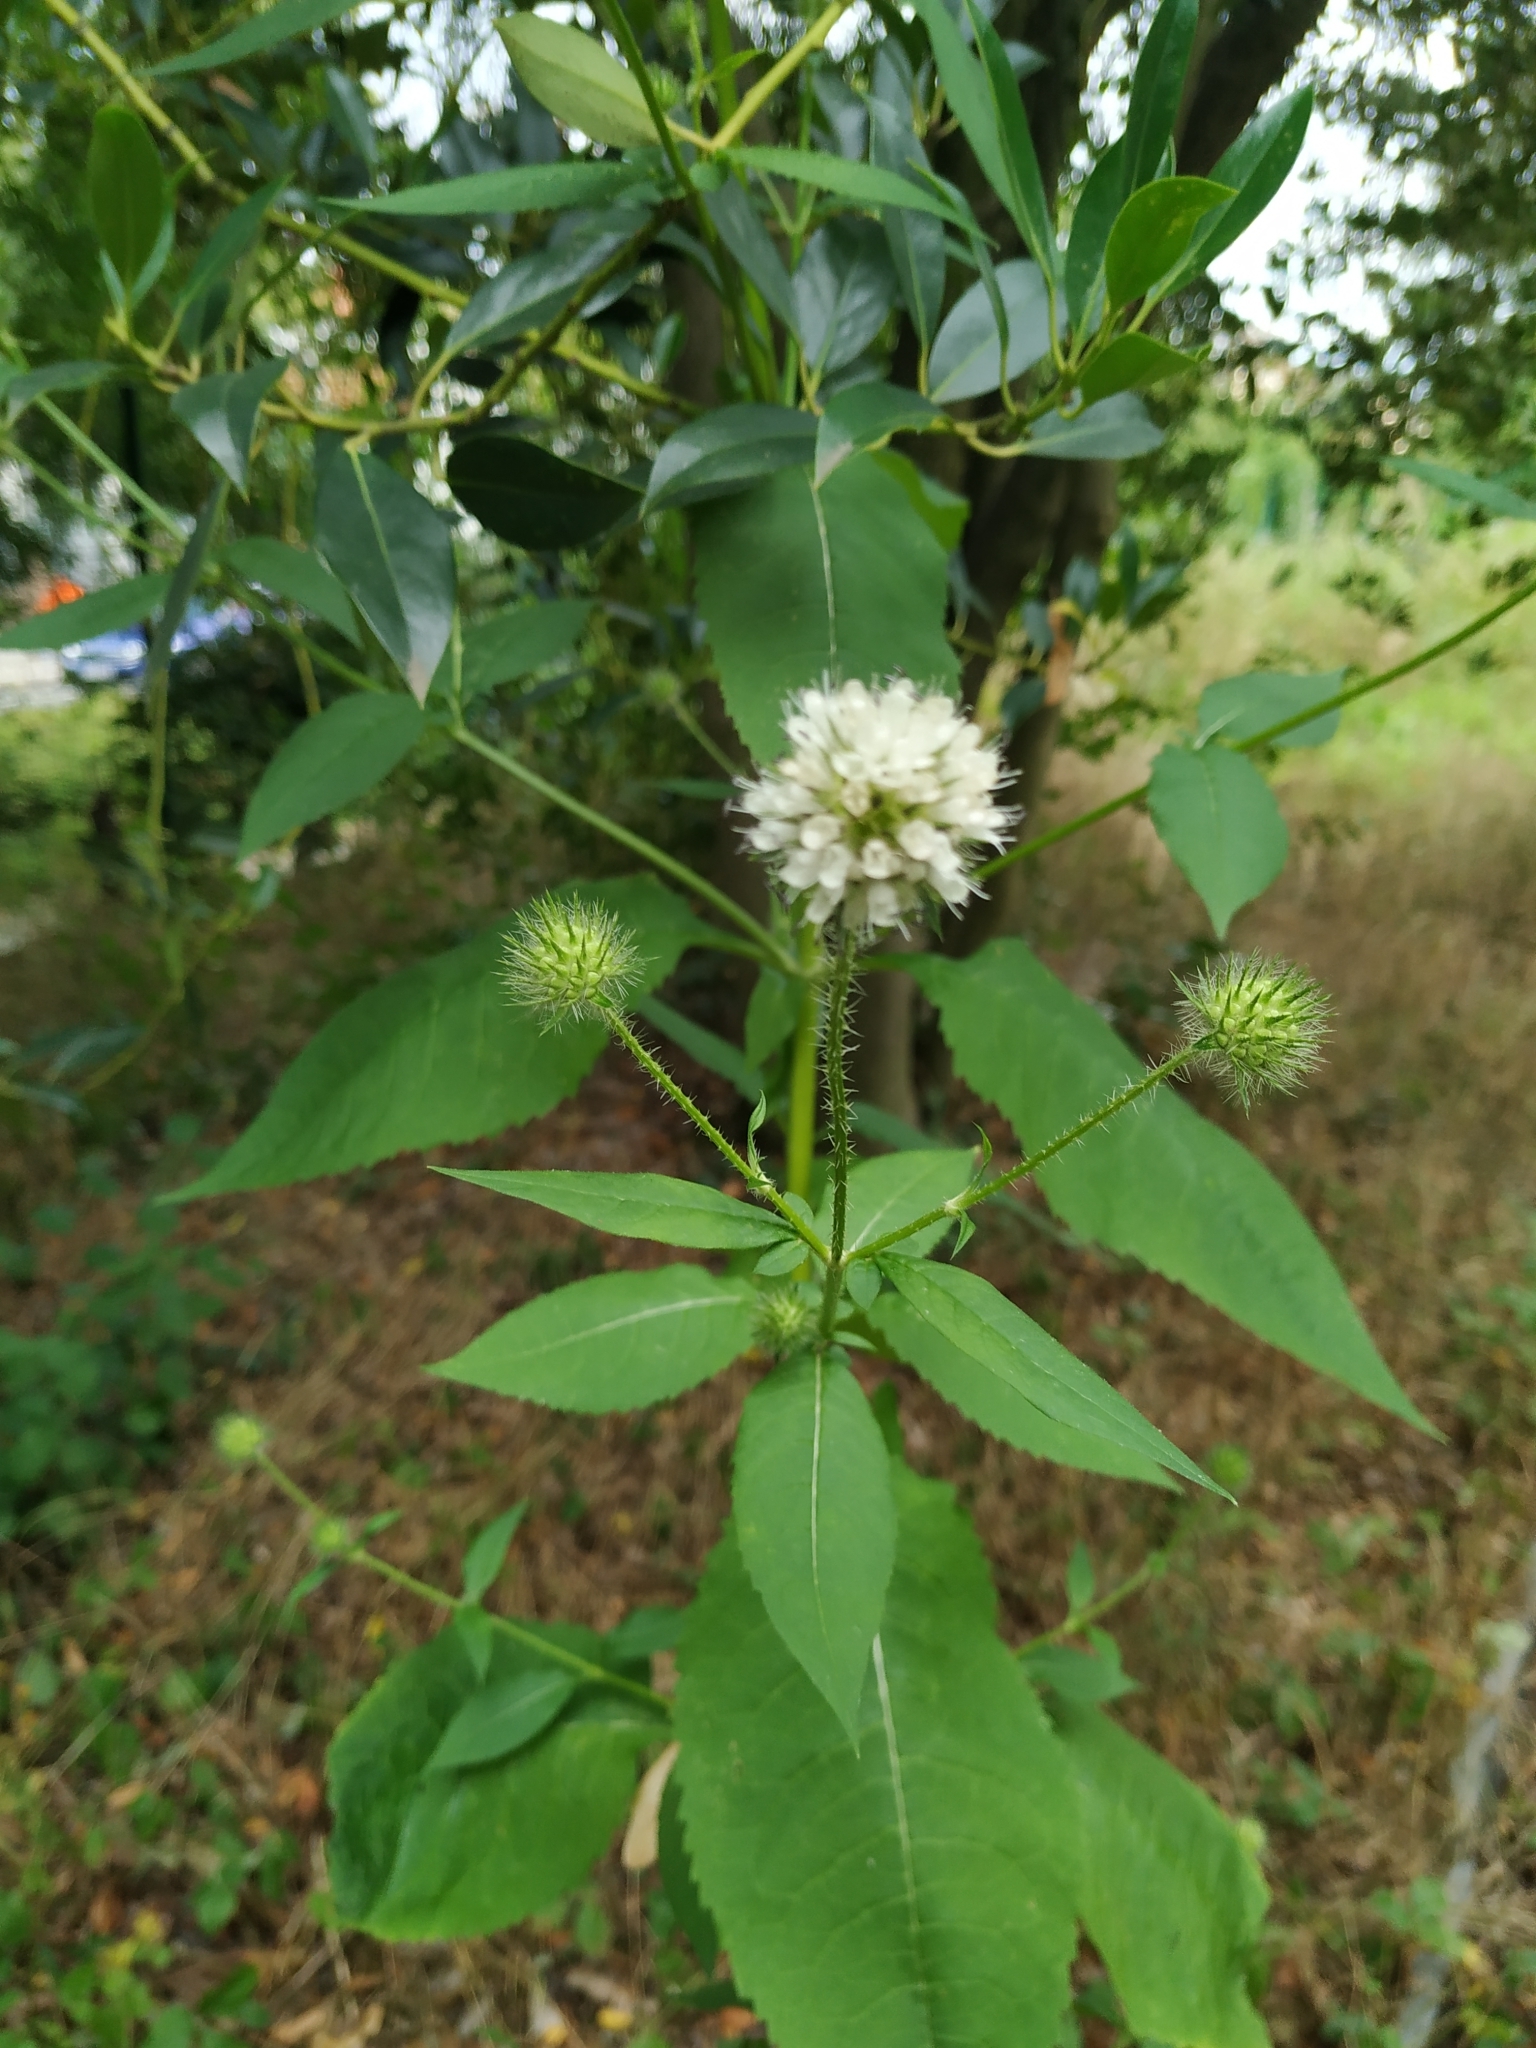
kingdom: Plantae
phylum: Tracheophyta
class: Magnoliopsida
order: Dipsacales
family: Caprifoliaceae
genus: Dipsacus
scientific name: Dipsacus pilosus
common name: Small teasel
